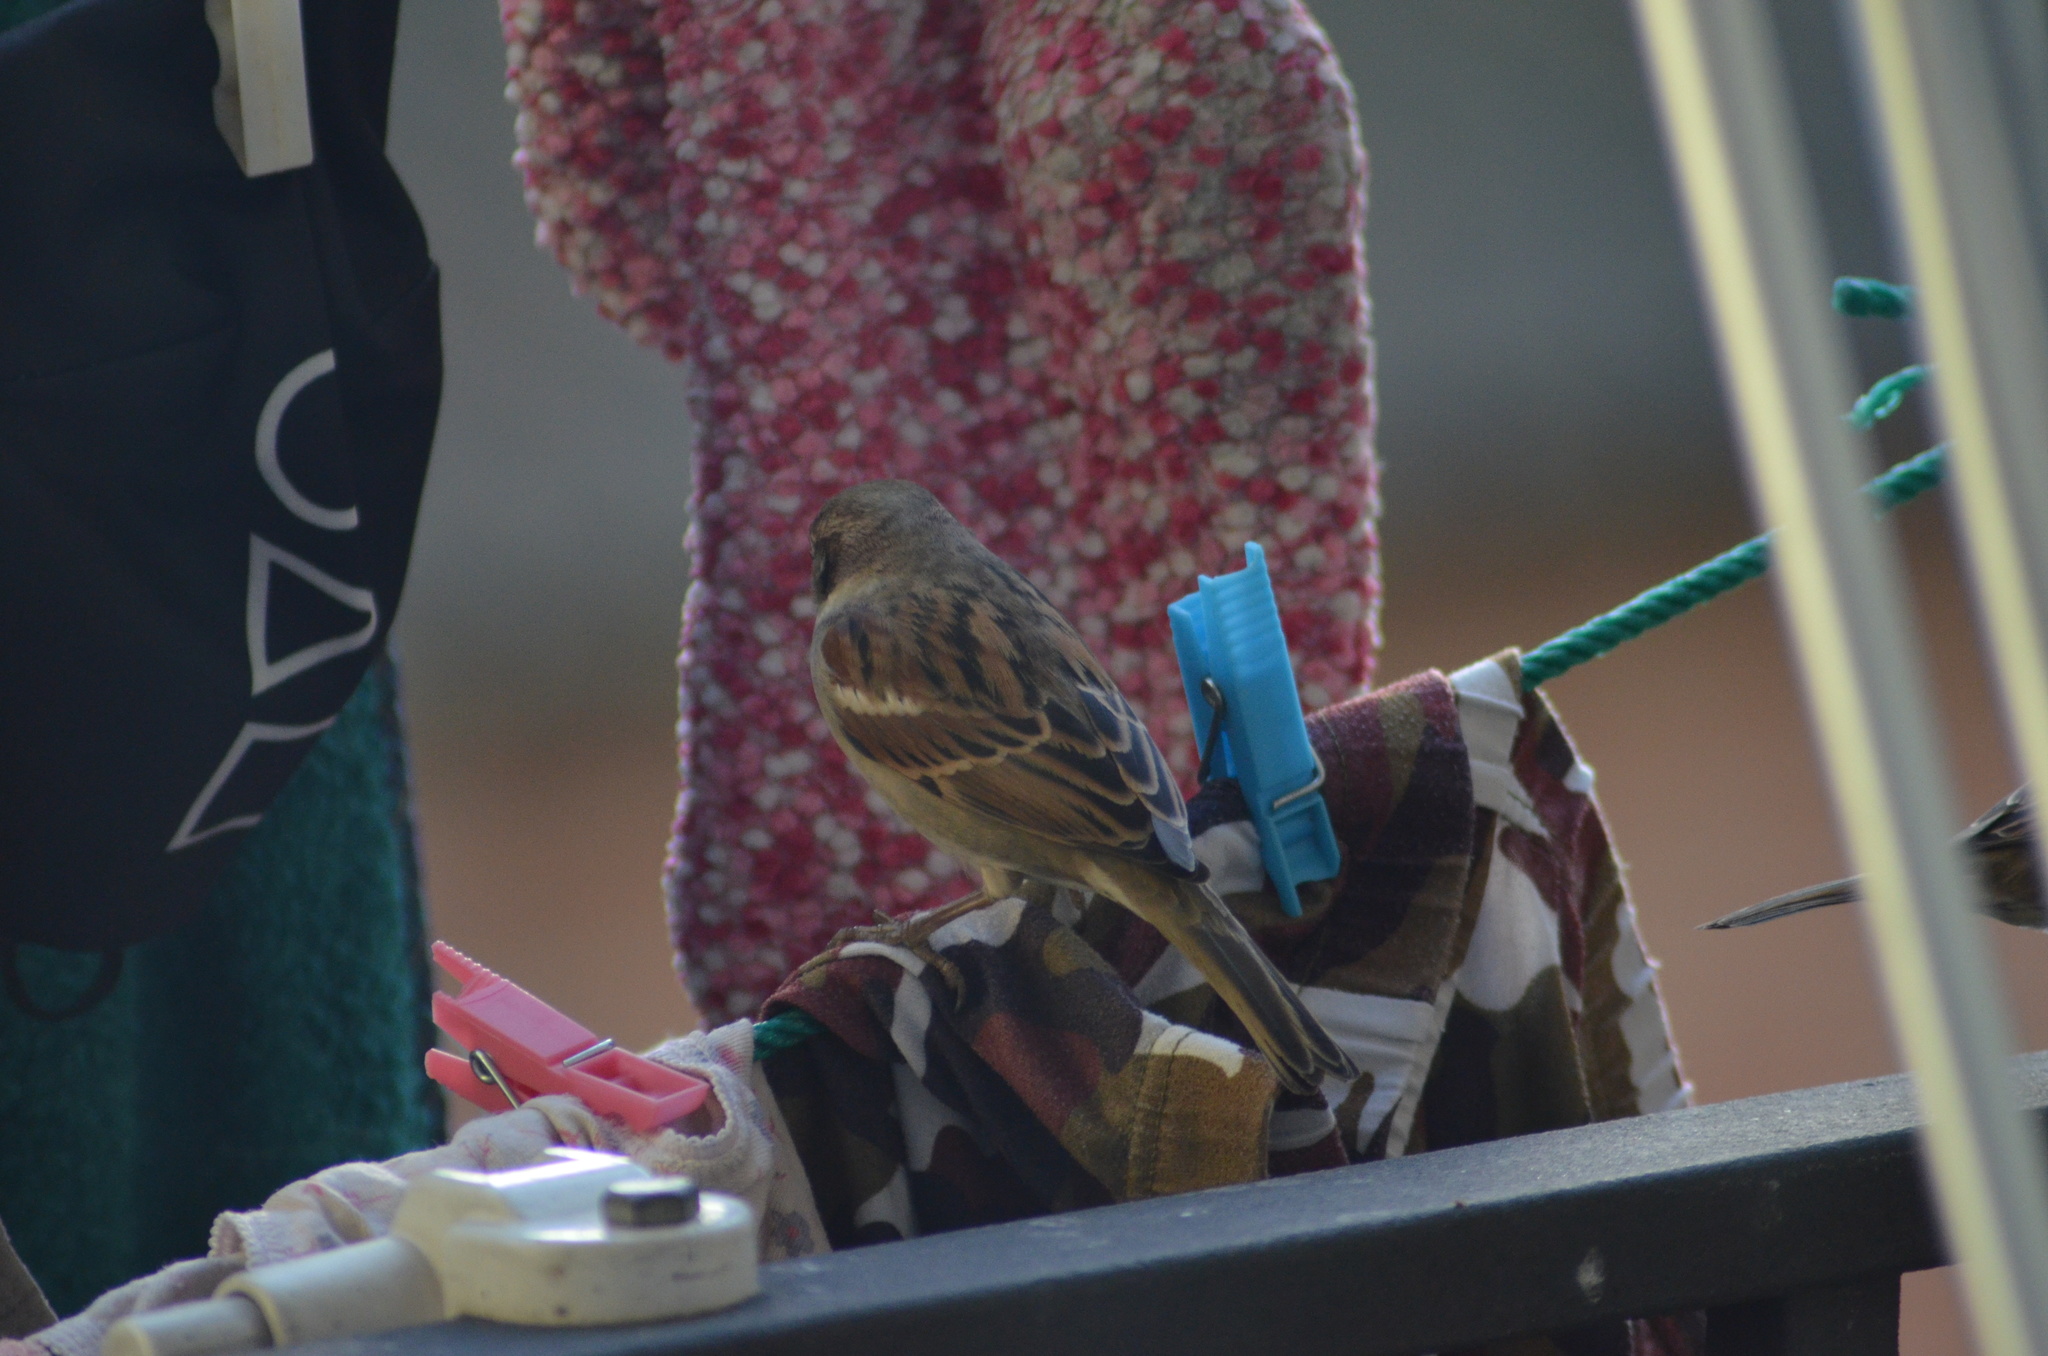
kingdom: Animalia
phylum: Chordata
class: Aves
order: Passeriformes
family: Passeridae
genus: Passer
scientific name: Passer domesticus
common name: House sparrow
